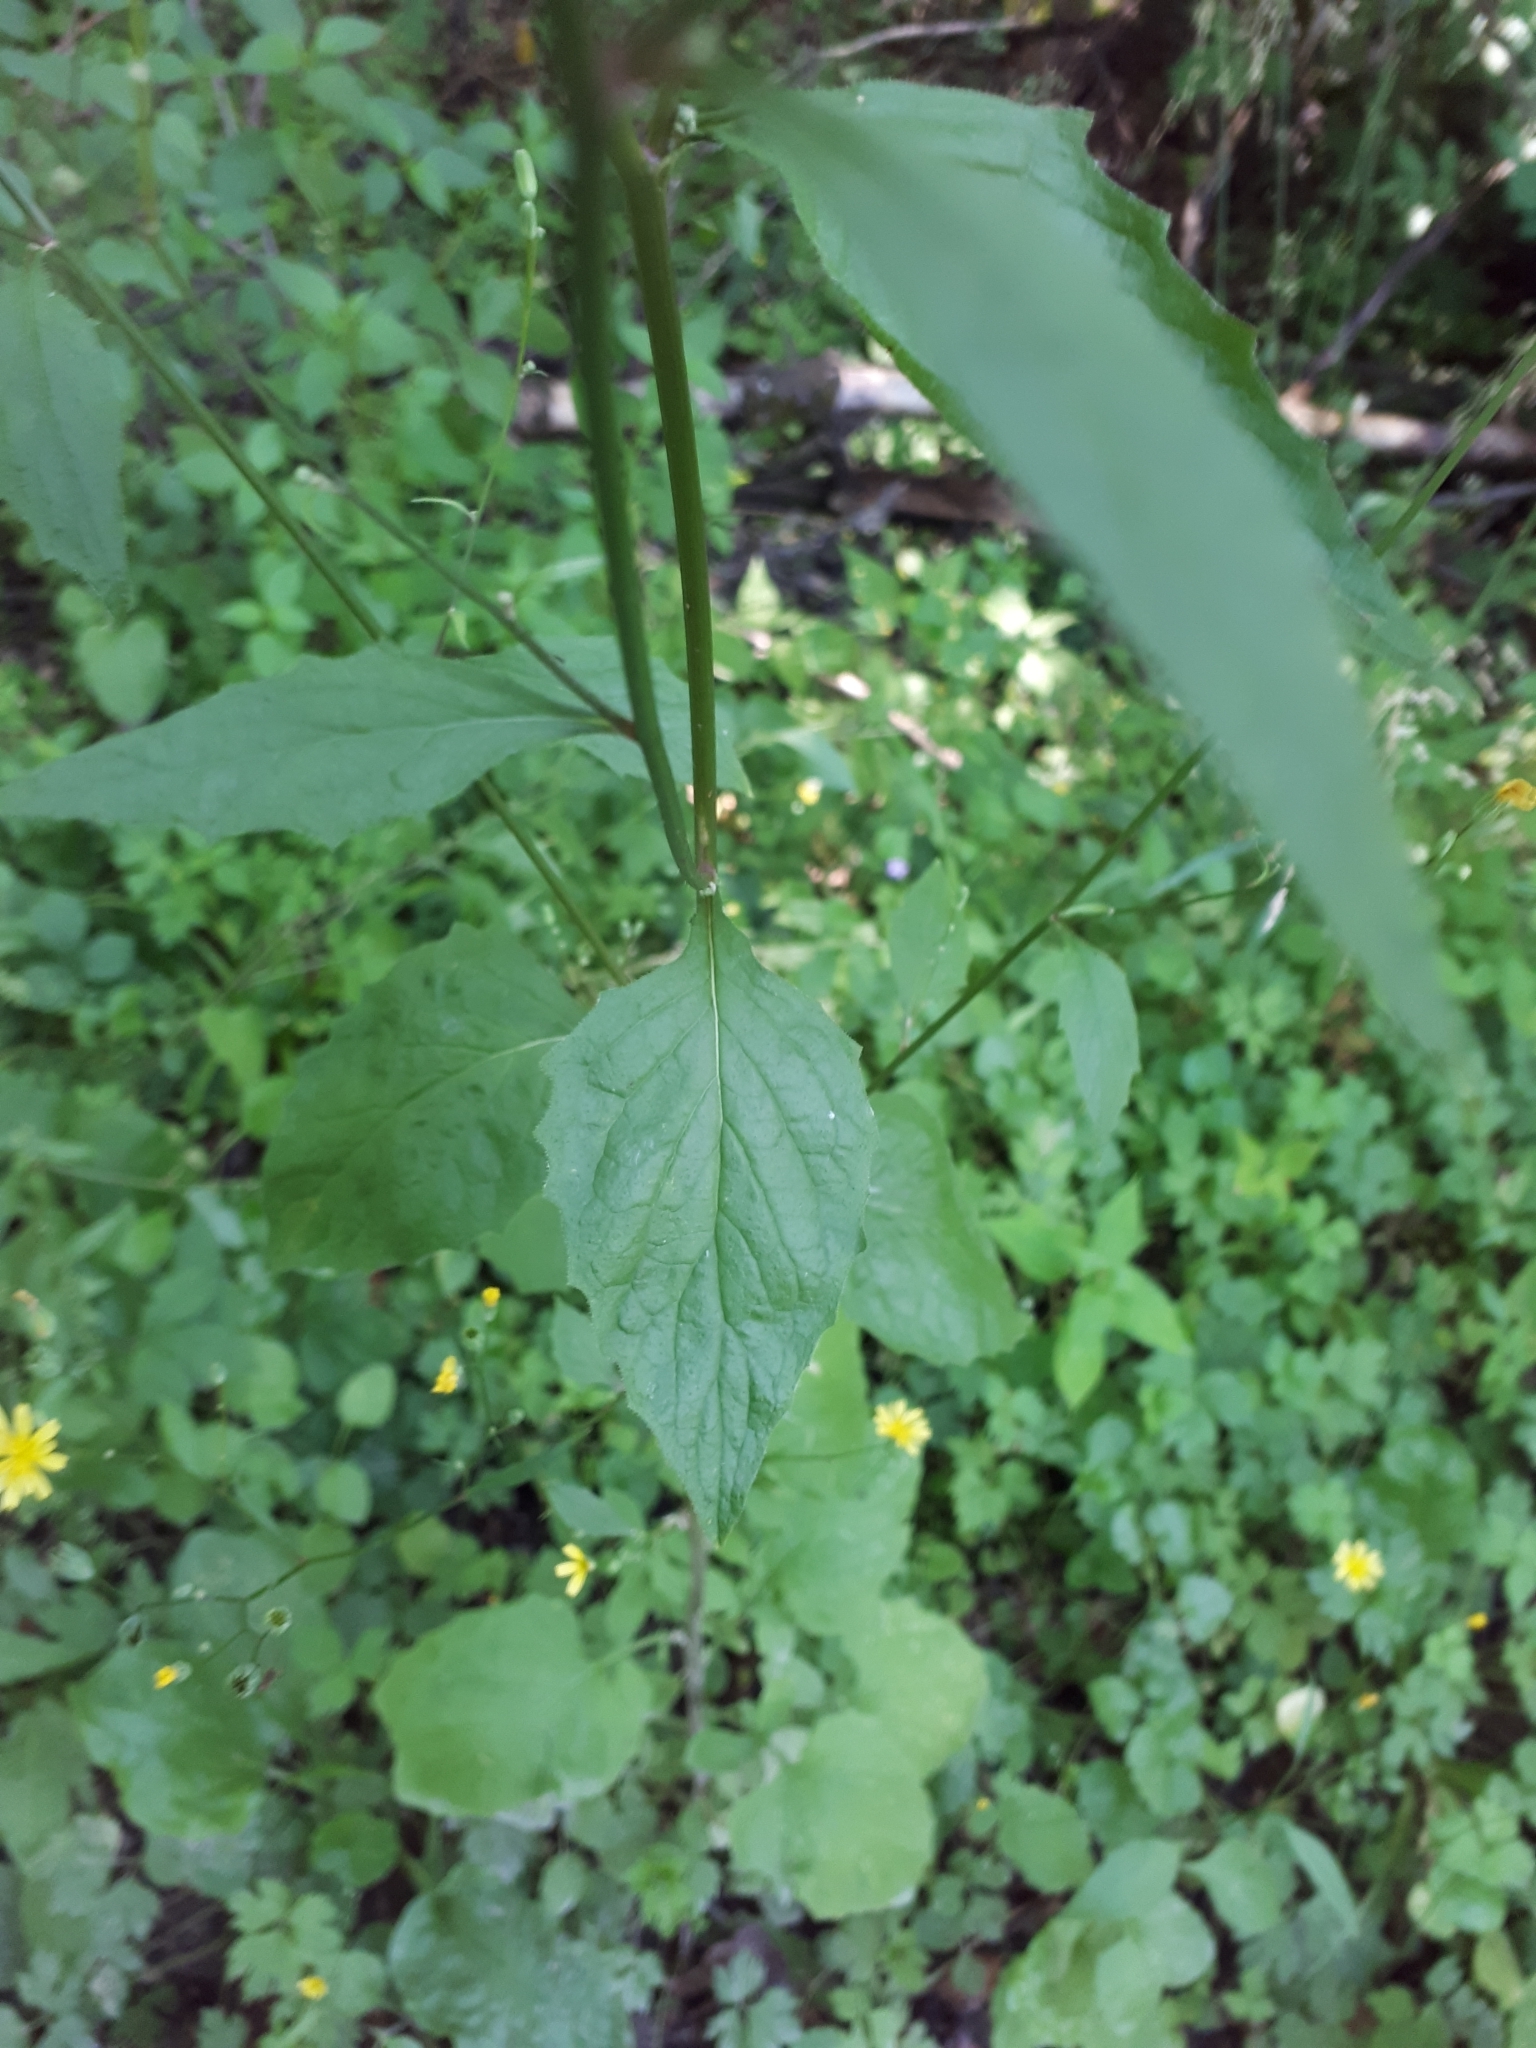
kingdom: Plantae
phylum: Tracheophyta
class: Magnoliopsida
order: Asterales
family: Asteraceae
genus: Lapsana
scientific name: Lapsana communis
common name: Nipplewort
